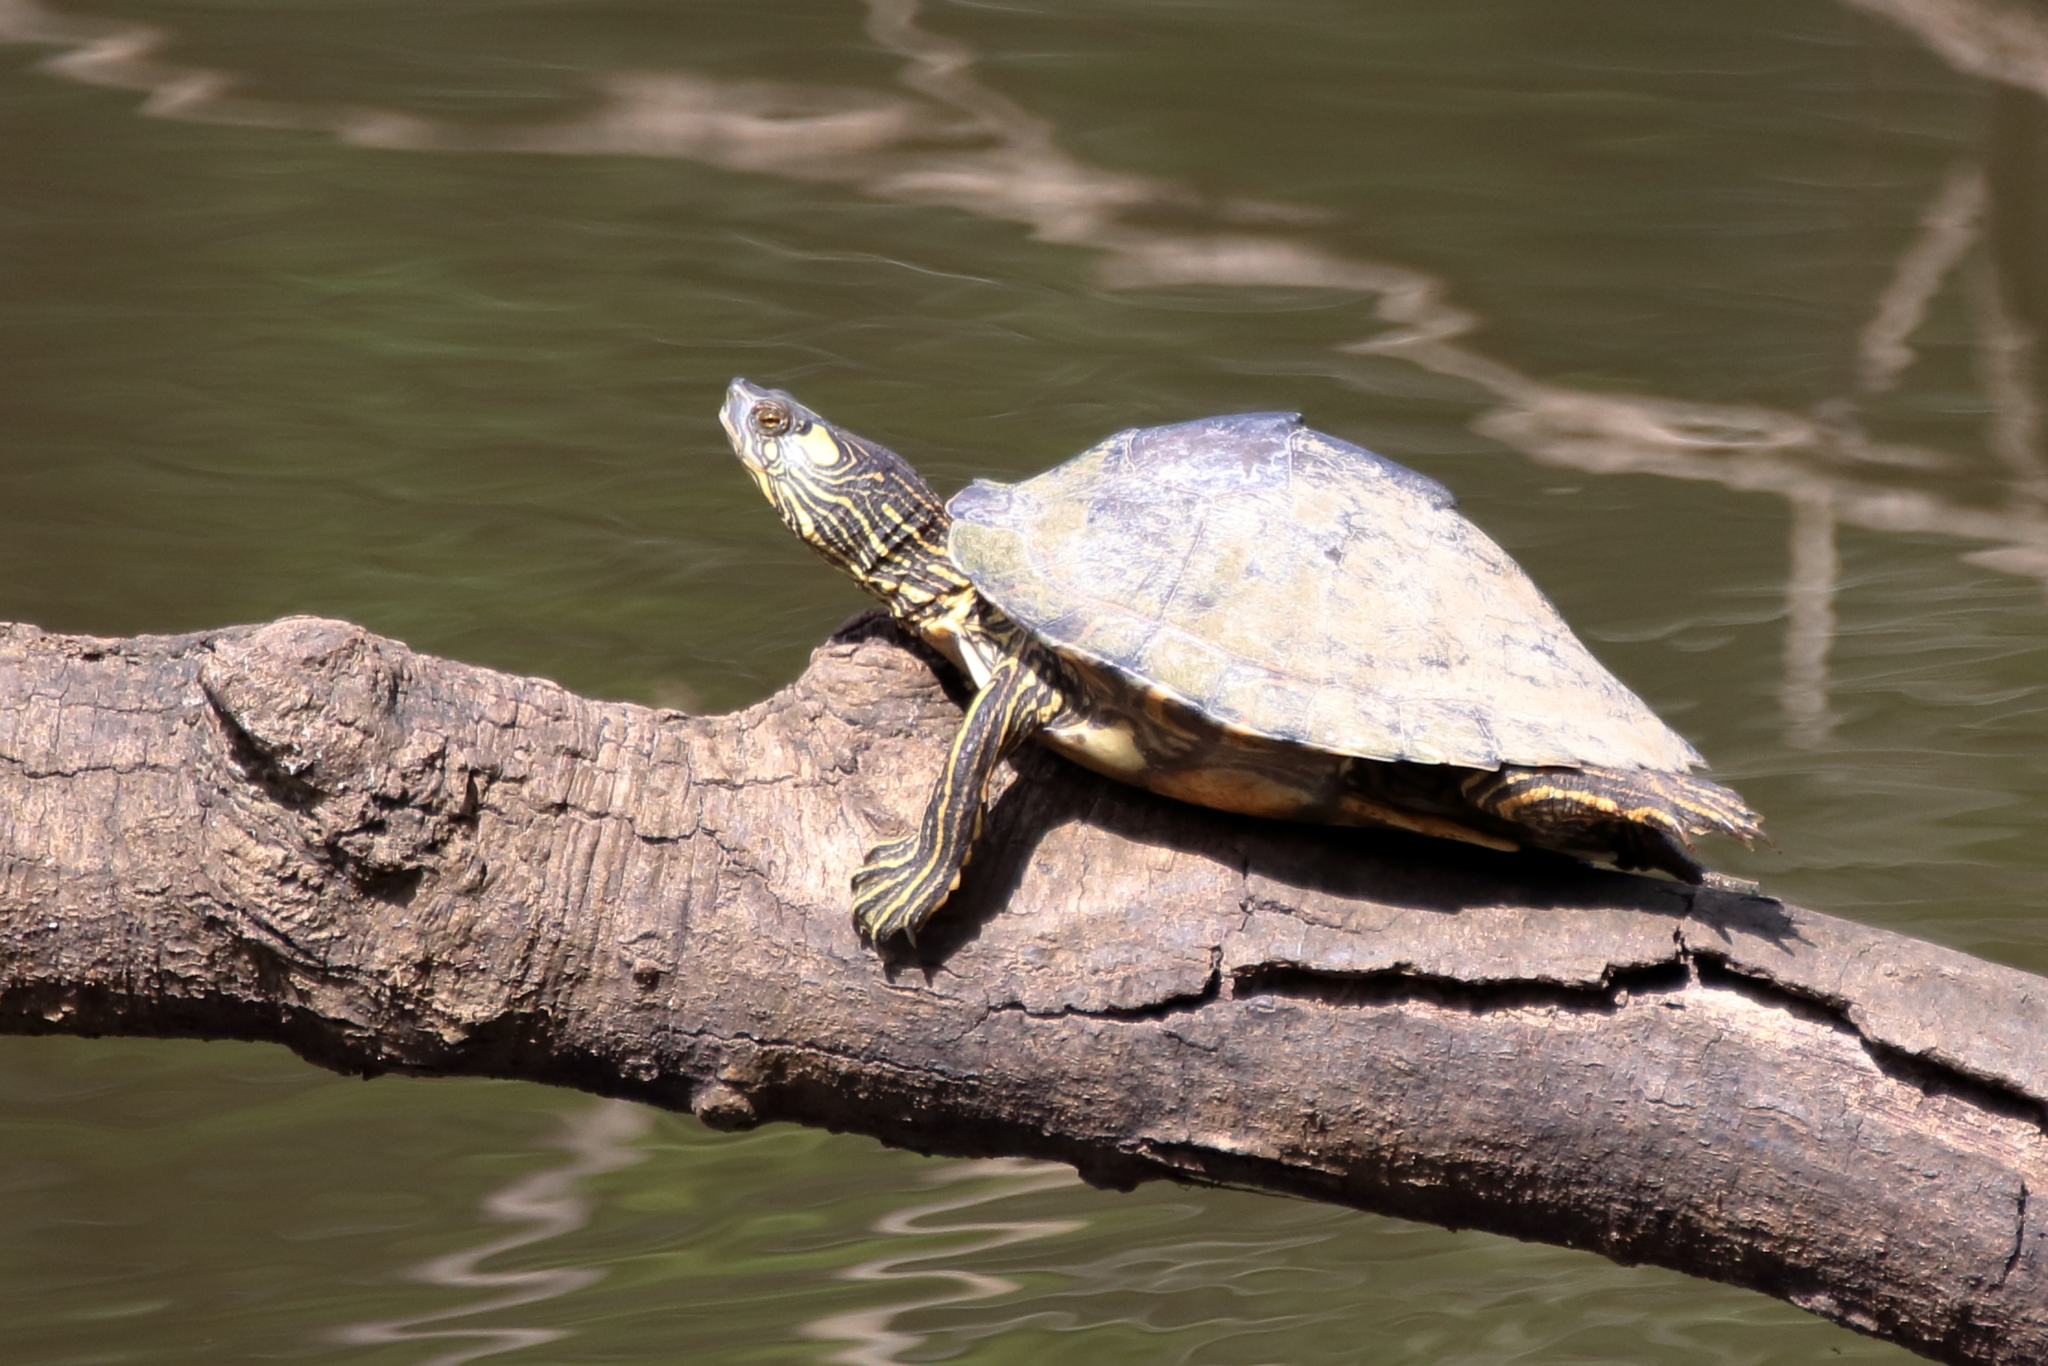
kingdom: Animalia
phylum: Chordata
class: Testudines
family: Emydidae
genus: Graptemys
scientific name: Graptemys pearlensis
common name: Pearl river map turtle
